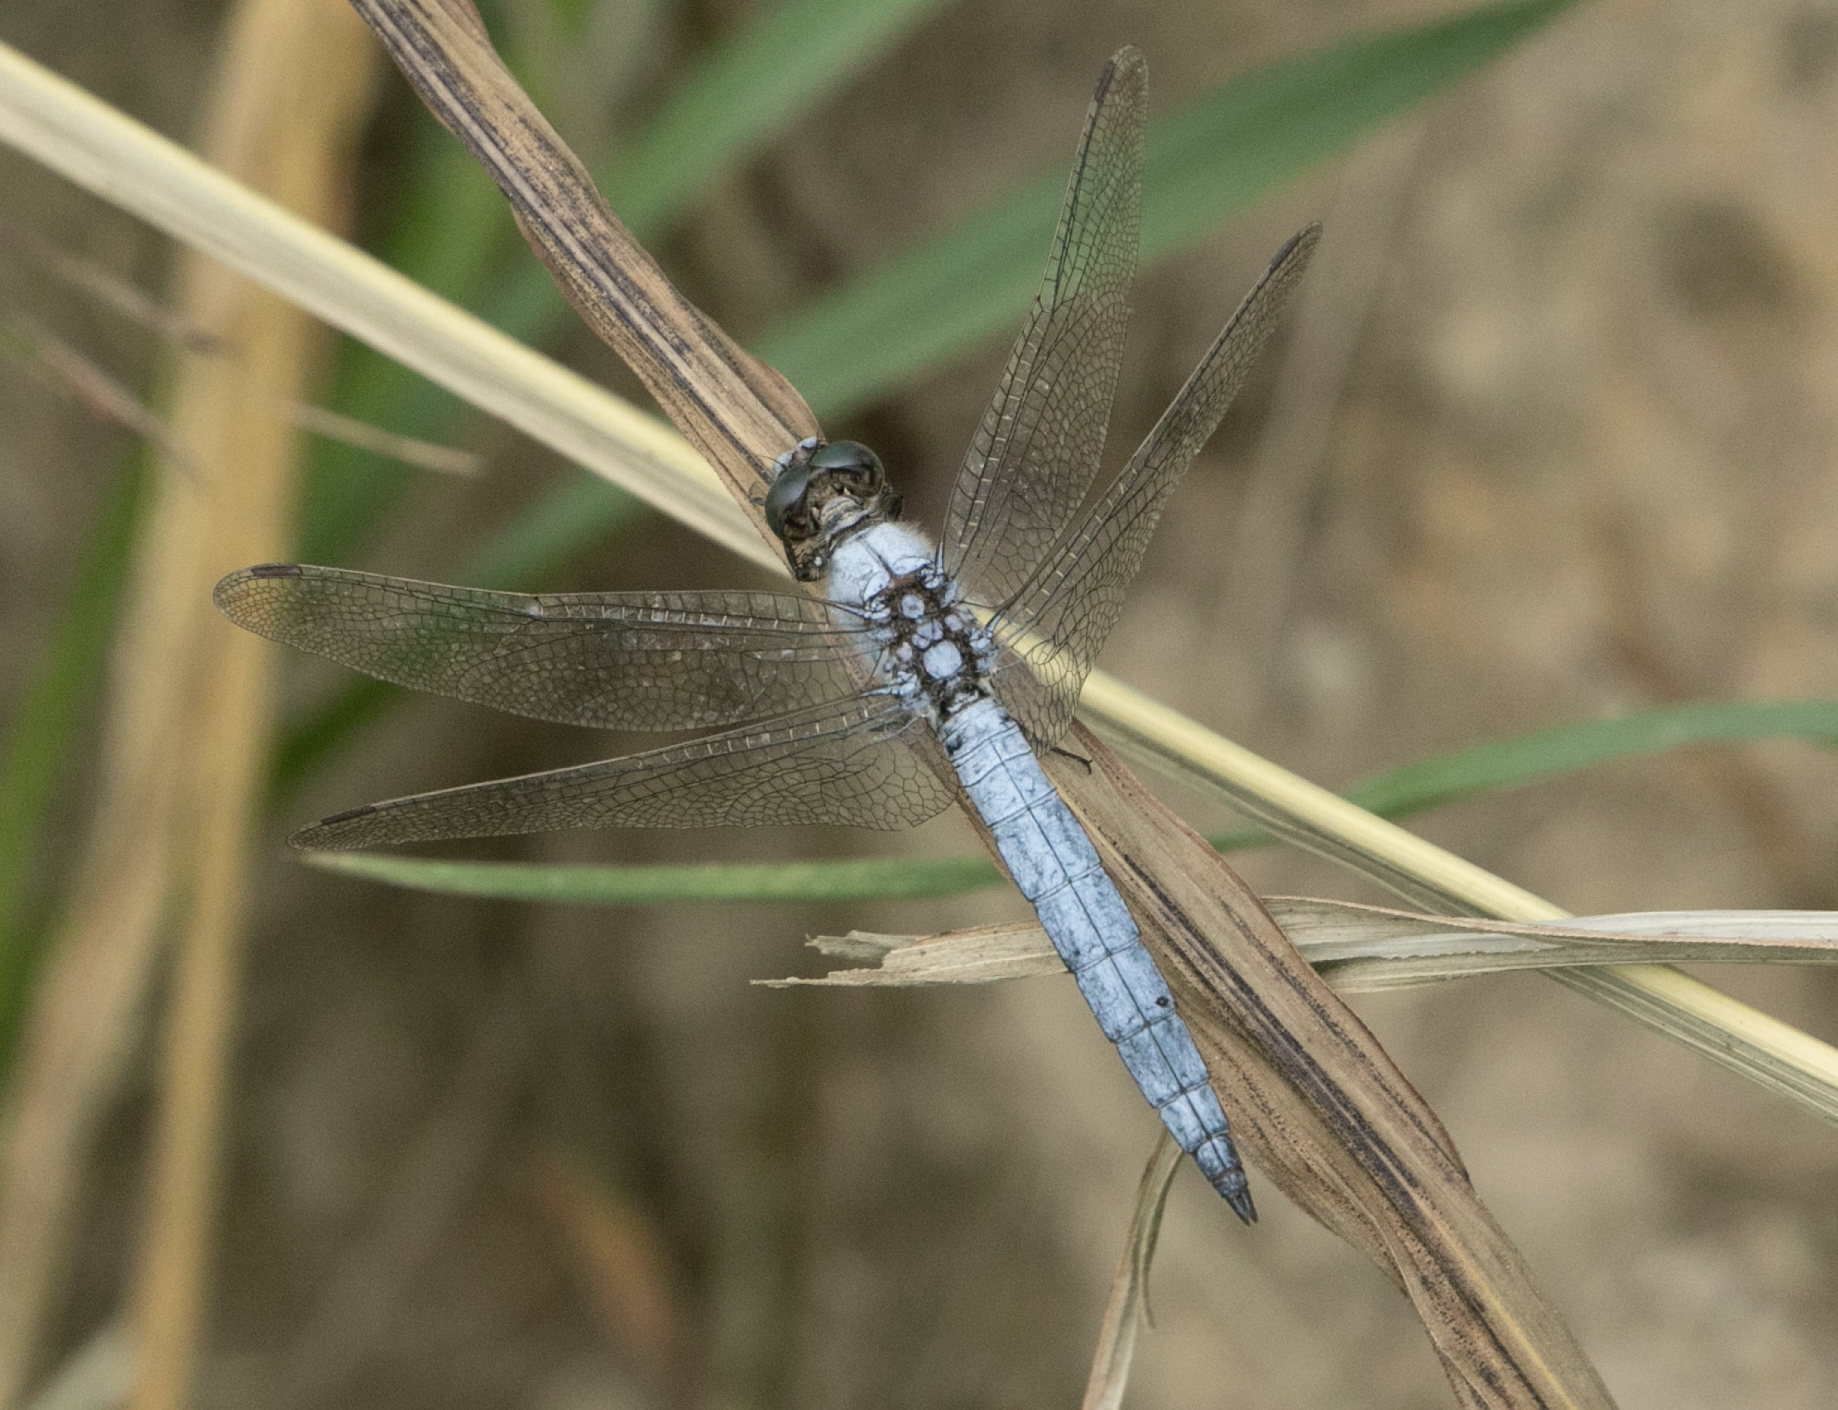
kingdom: Animalia
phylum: Arthropoda
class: Insecta
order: Odonata
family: Libellulidae
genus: Orthetrum
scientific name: Orthetrum brunneum
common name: Southern skimmer
